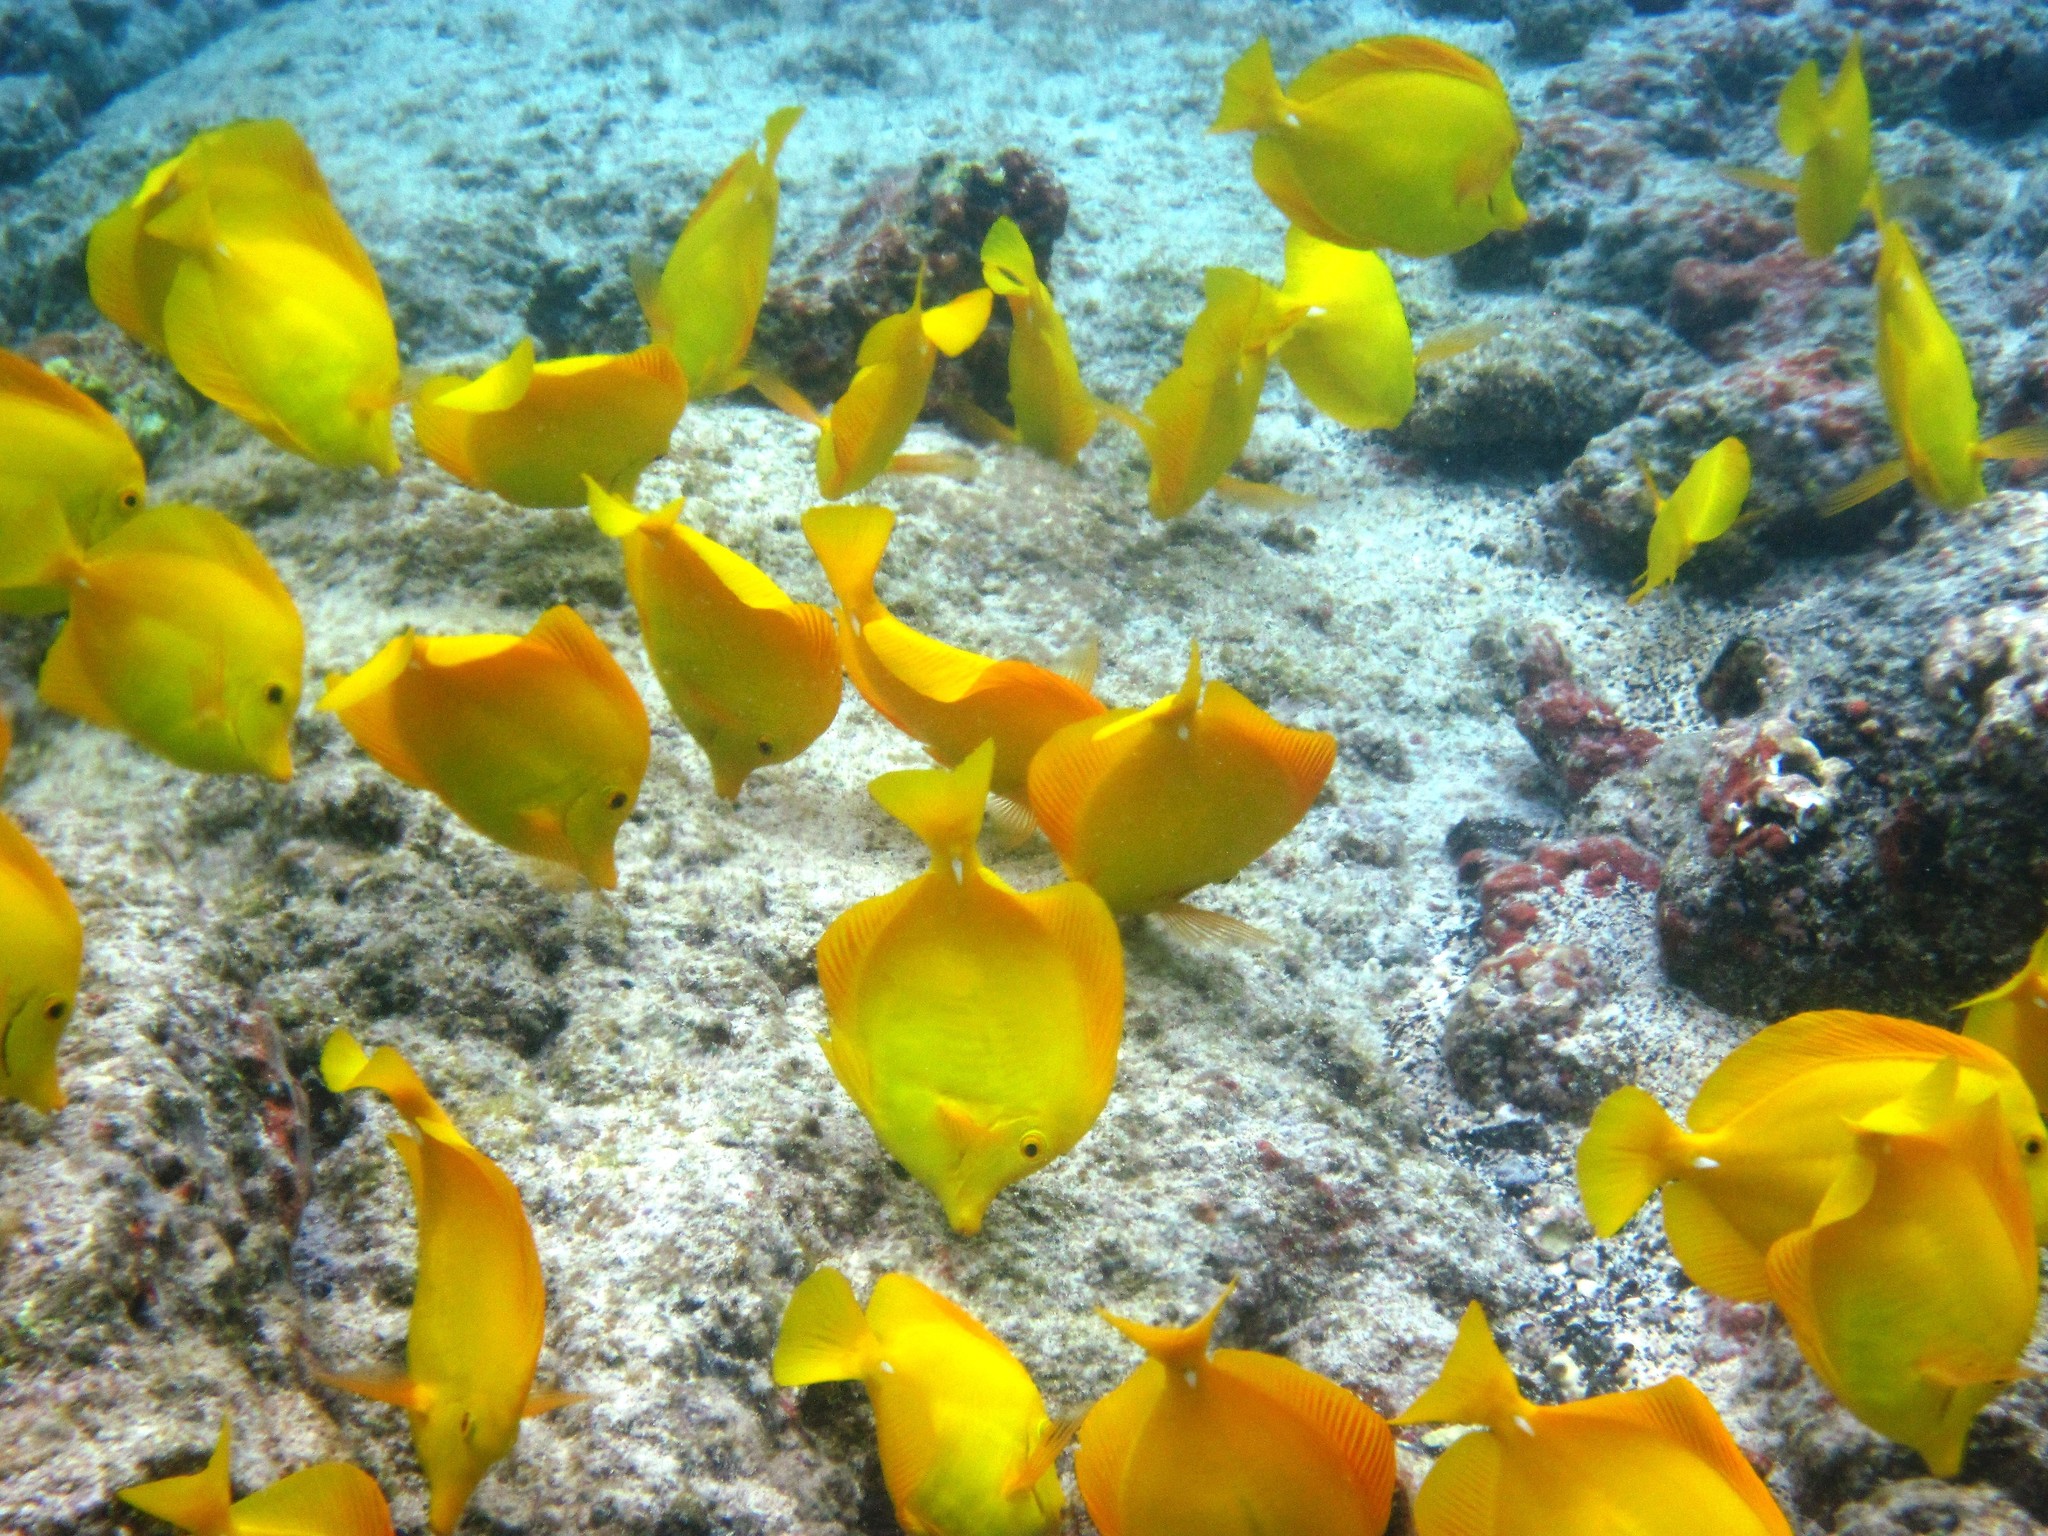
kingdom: Animalia
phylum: Chordata
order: Perciformes
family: Acanthuridae
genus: Zebrasoma
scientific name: Zebrasoma flavescens
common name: Yellow tang
